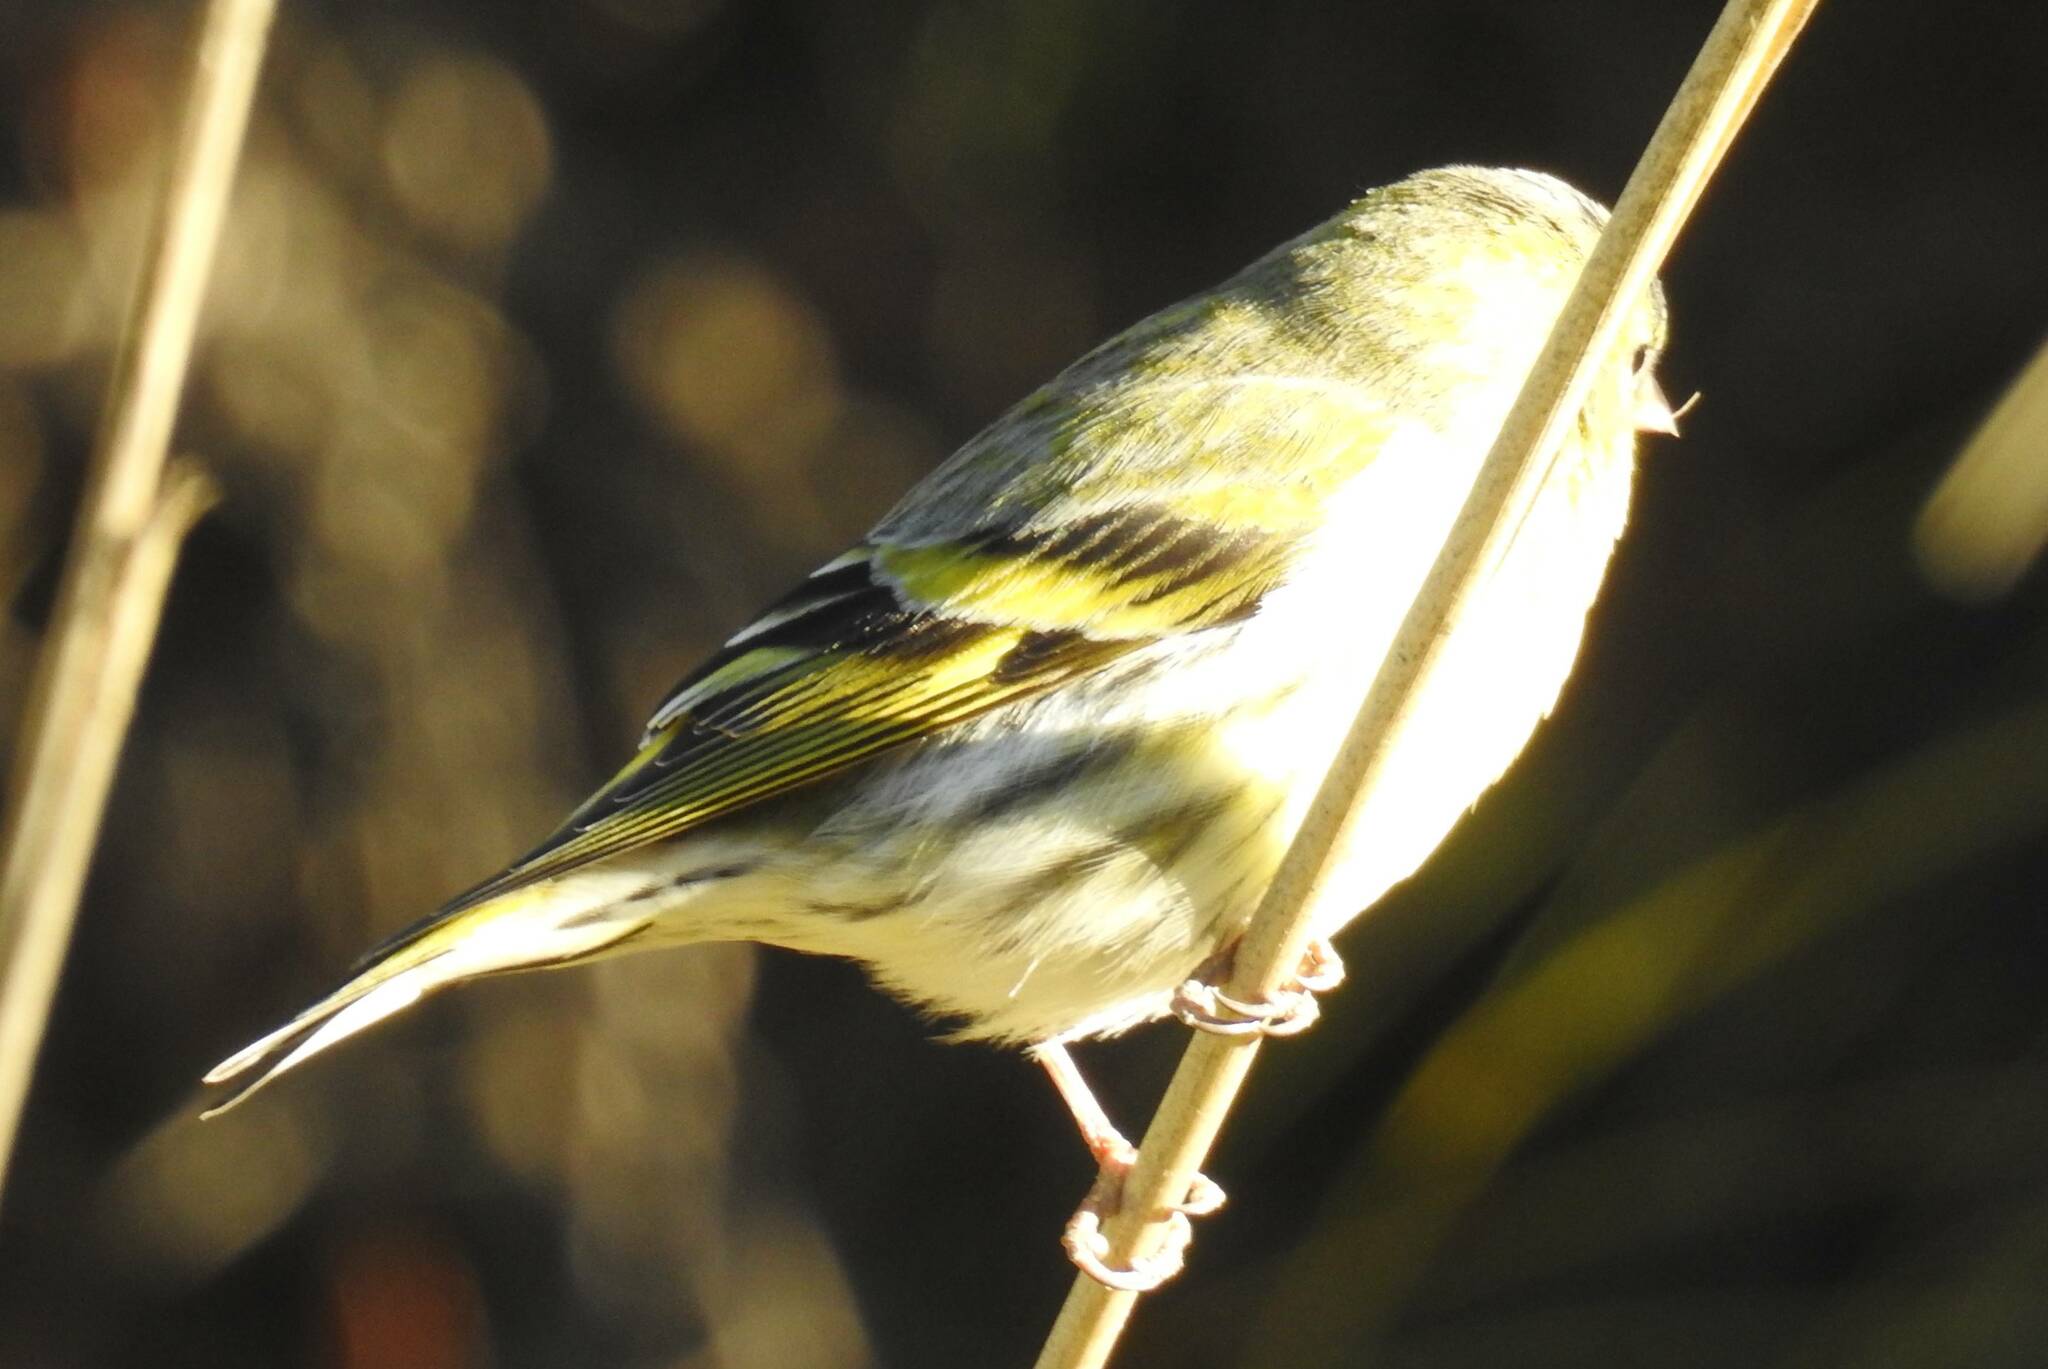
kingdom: Animalia
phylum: Chordata
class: Aves
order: Passeriformes
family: Fringillidae
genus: Spinus
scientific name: Spinus spinus
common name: Eurasian siskin
